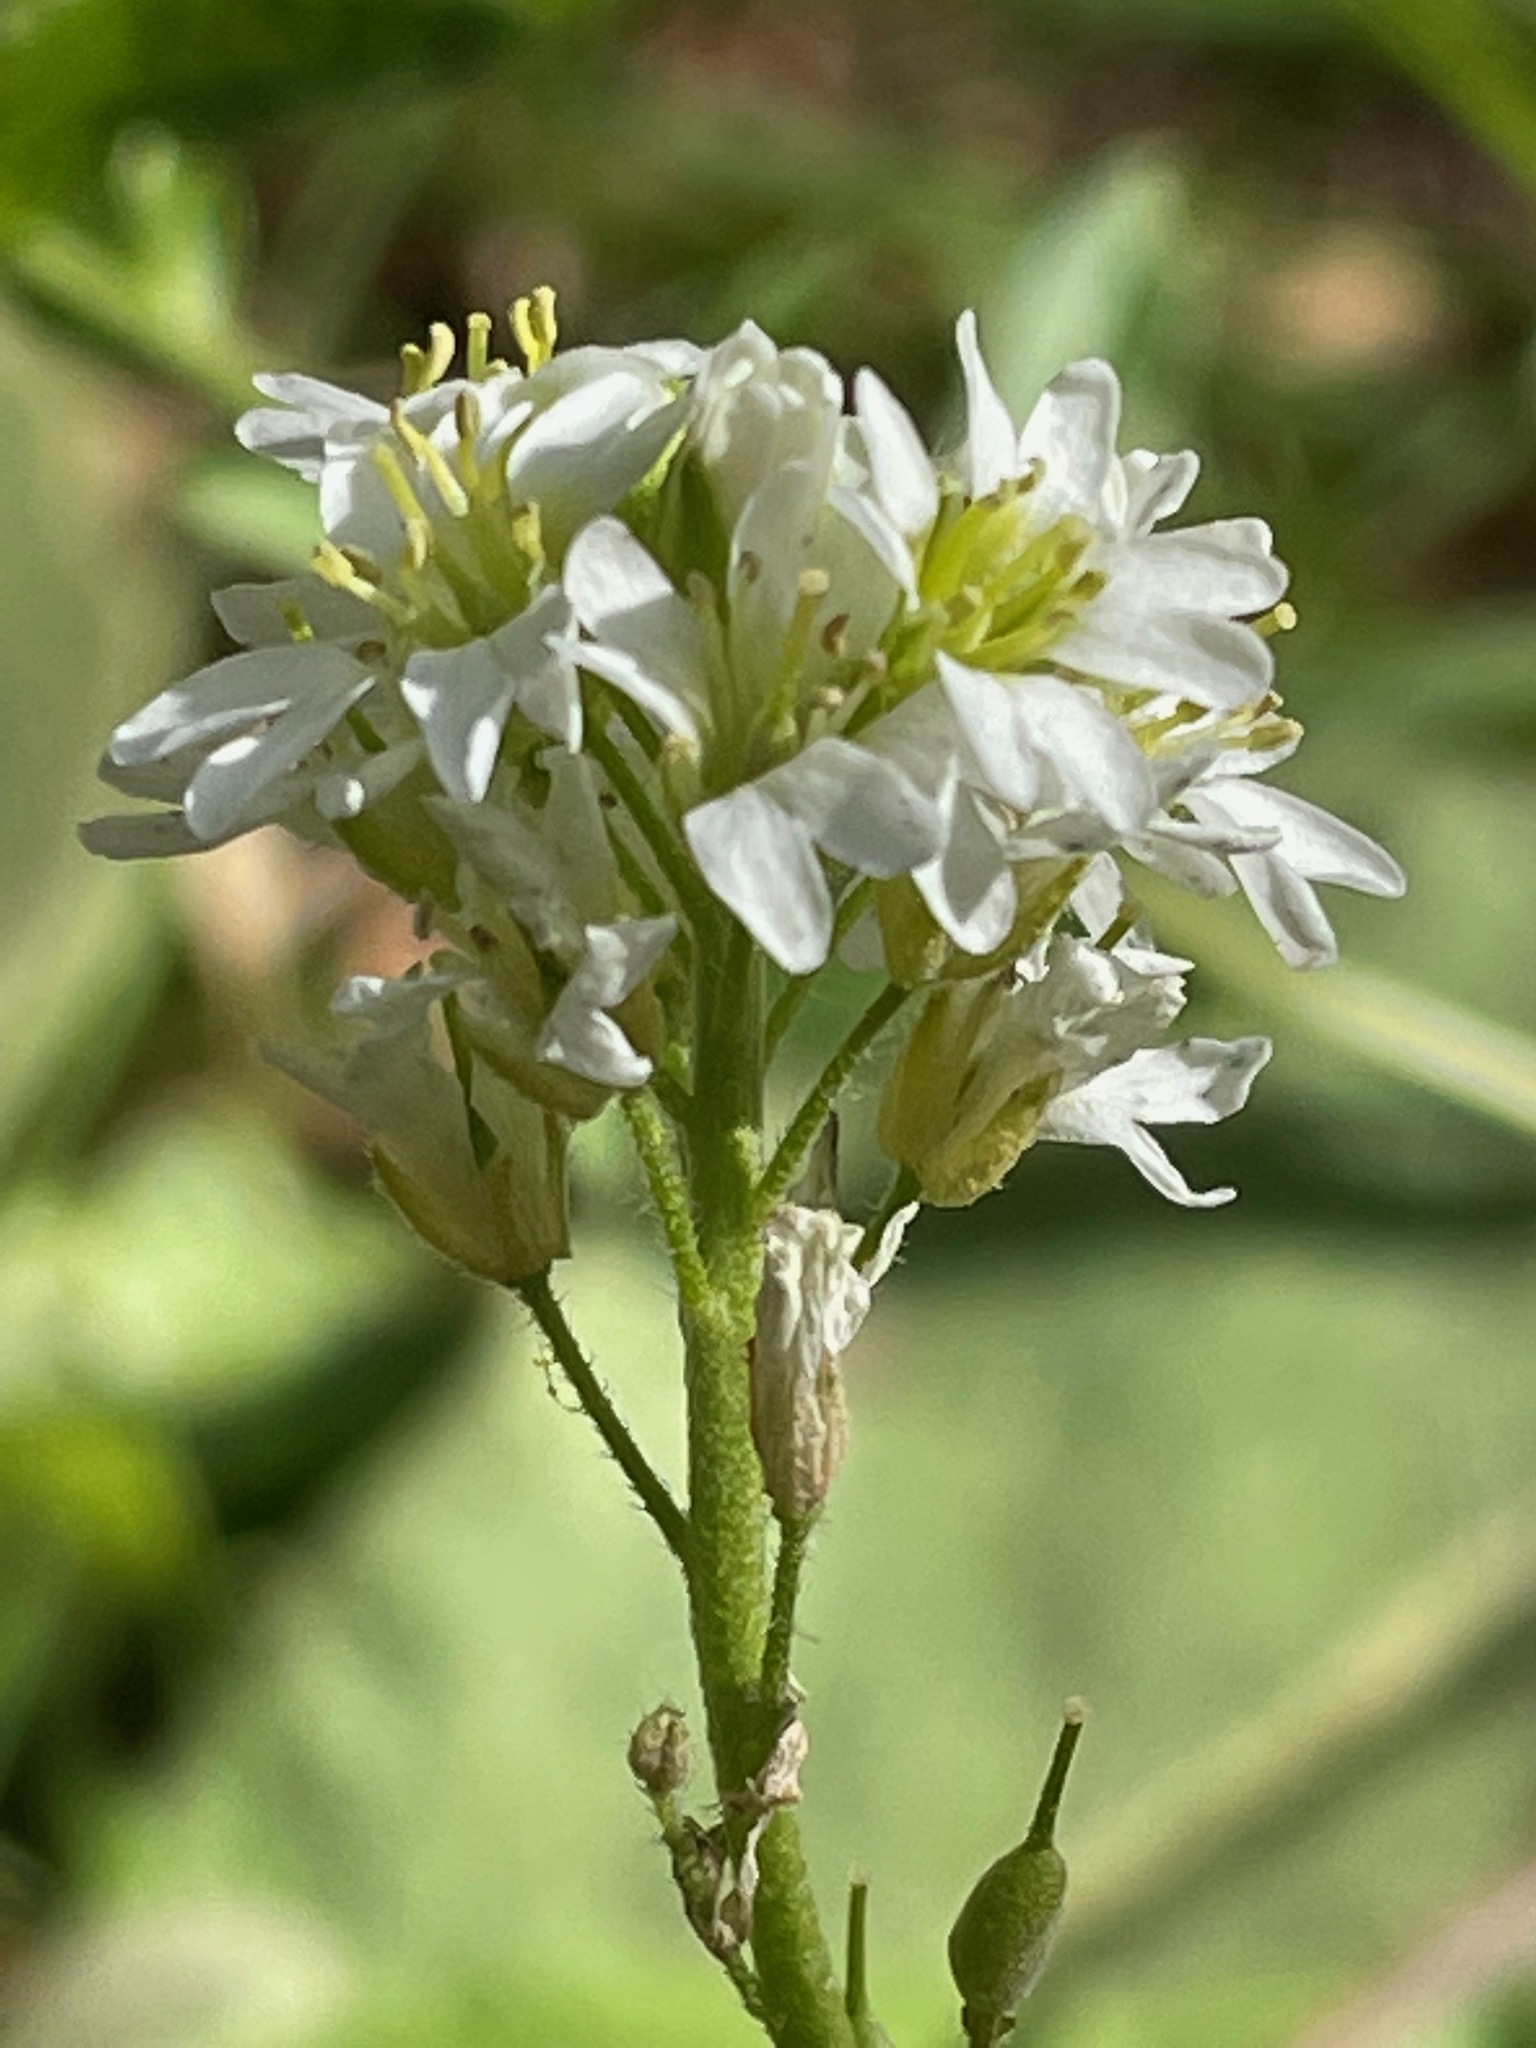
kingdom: Plantae
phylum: Tracheophyta
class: Magnoliopsida
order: Brassicales
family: Brassicaceae
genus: Berteroa
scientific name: Berteroa incana
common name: Hoary alison
